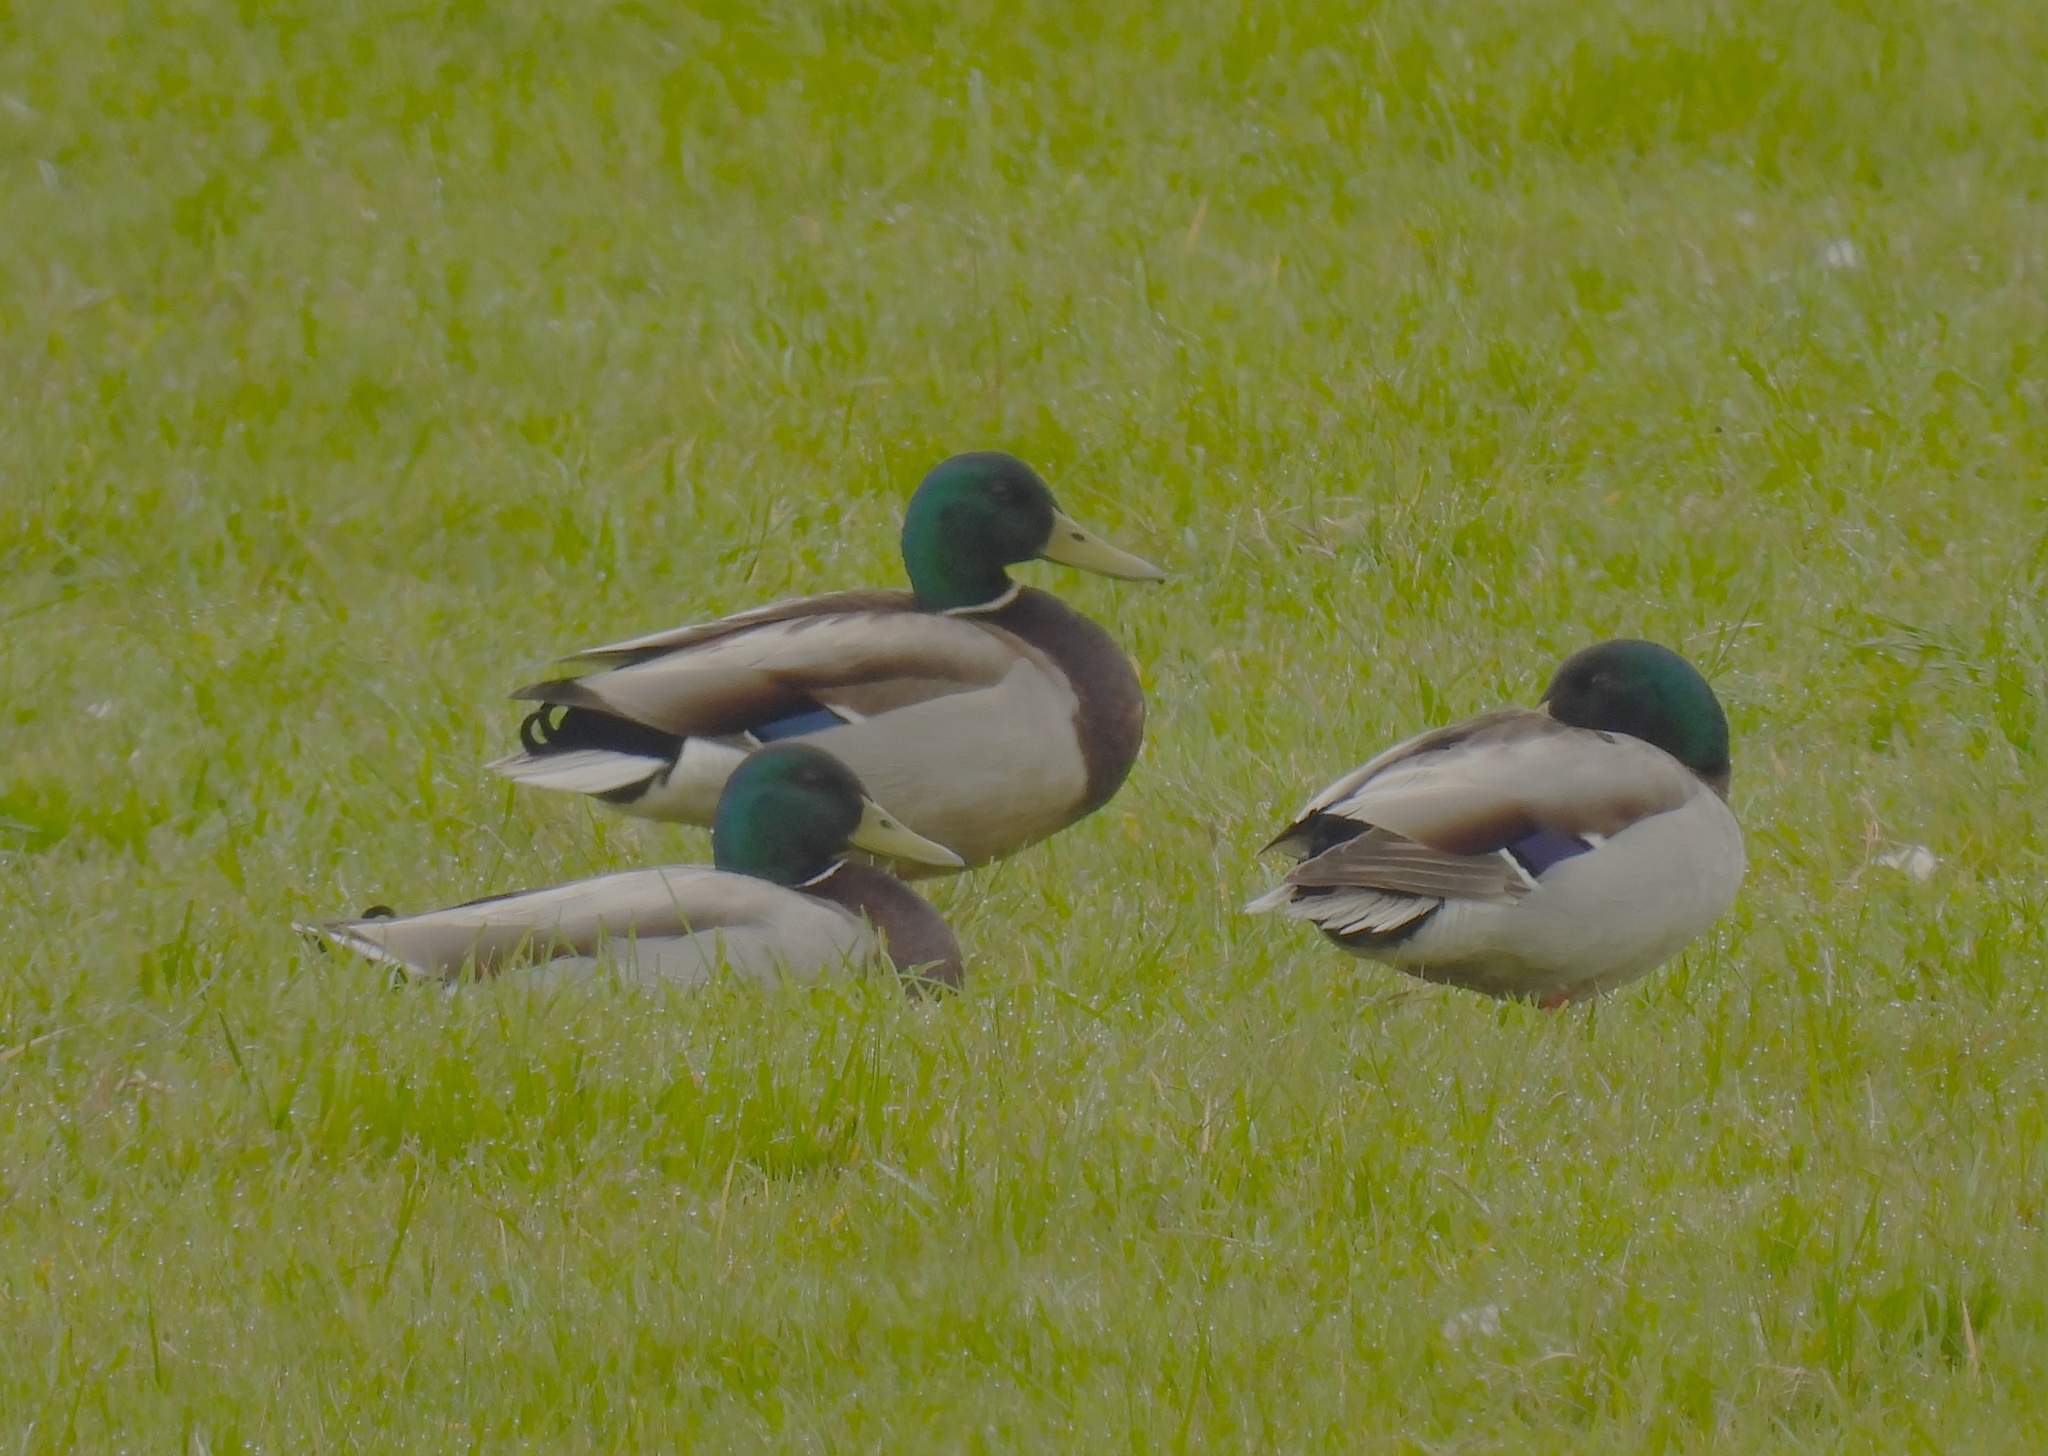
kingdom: Animalia
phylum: Chordata
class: Aves
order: Anseriformes
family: Anatidae
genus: Anas
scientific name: Anas platyrhynchos
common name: Mallard
